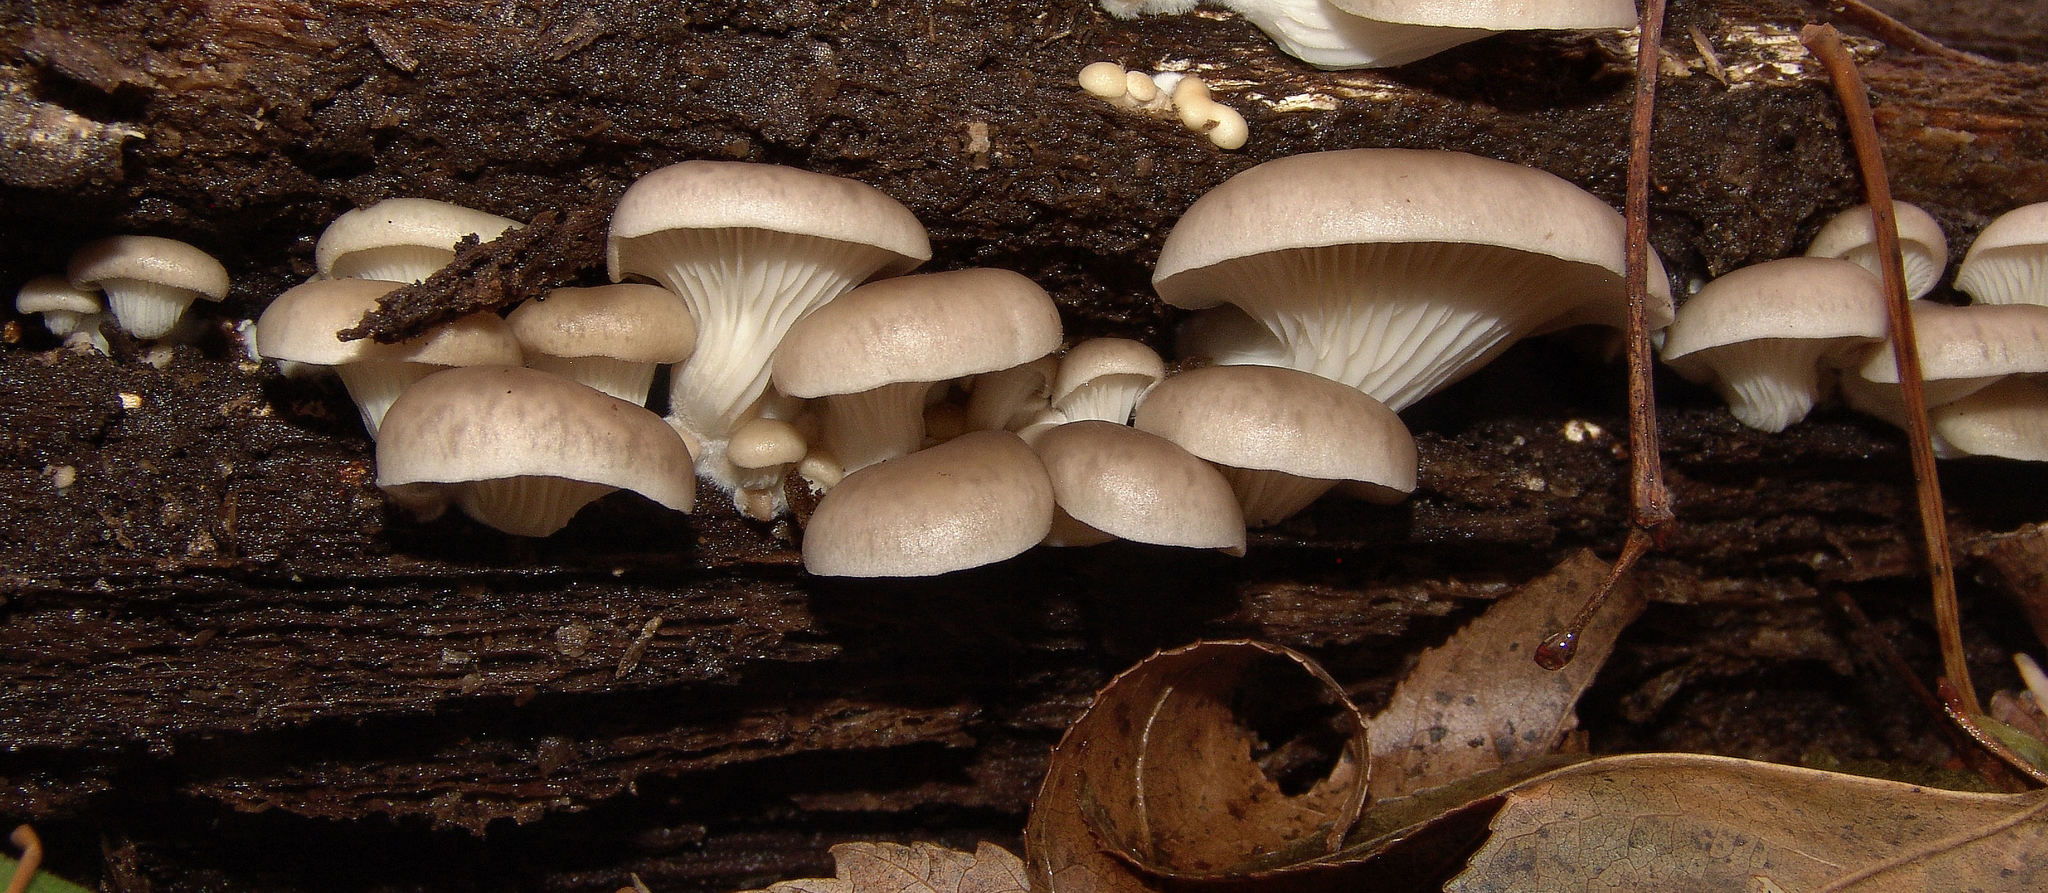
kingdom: Fungi
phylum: Basidiomycota
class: Agaricomycetes
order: Agaricales
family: Pleurotaceae
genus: Pleurotus
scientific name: Pleurotus ostreatus
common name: Oyster mushroom
